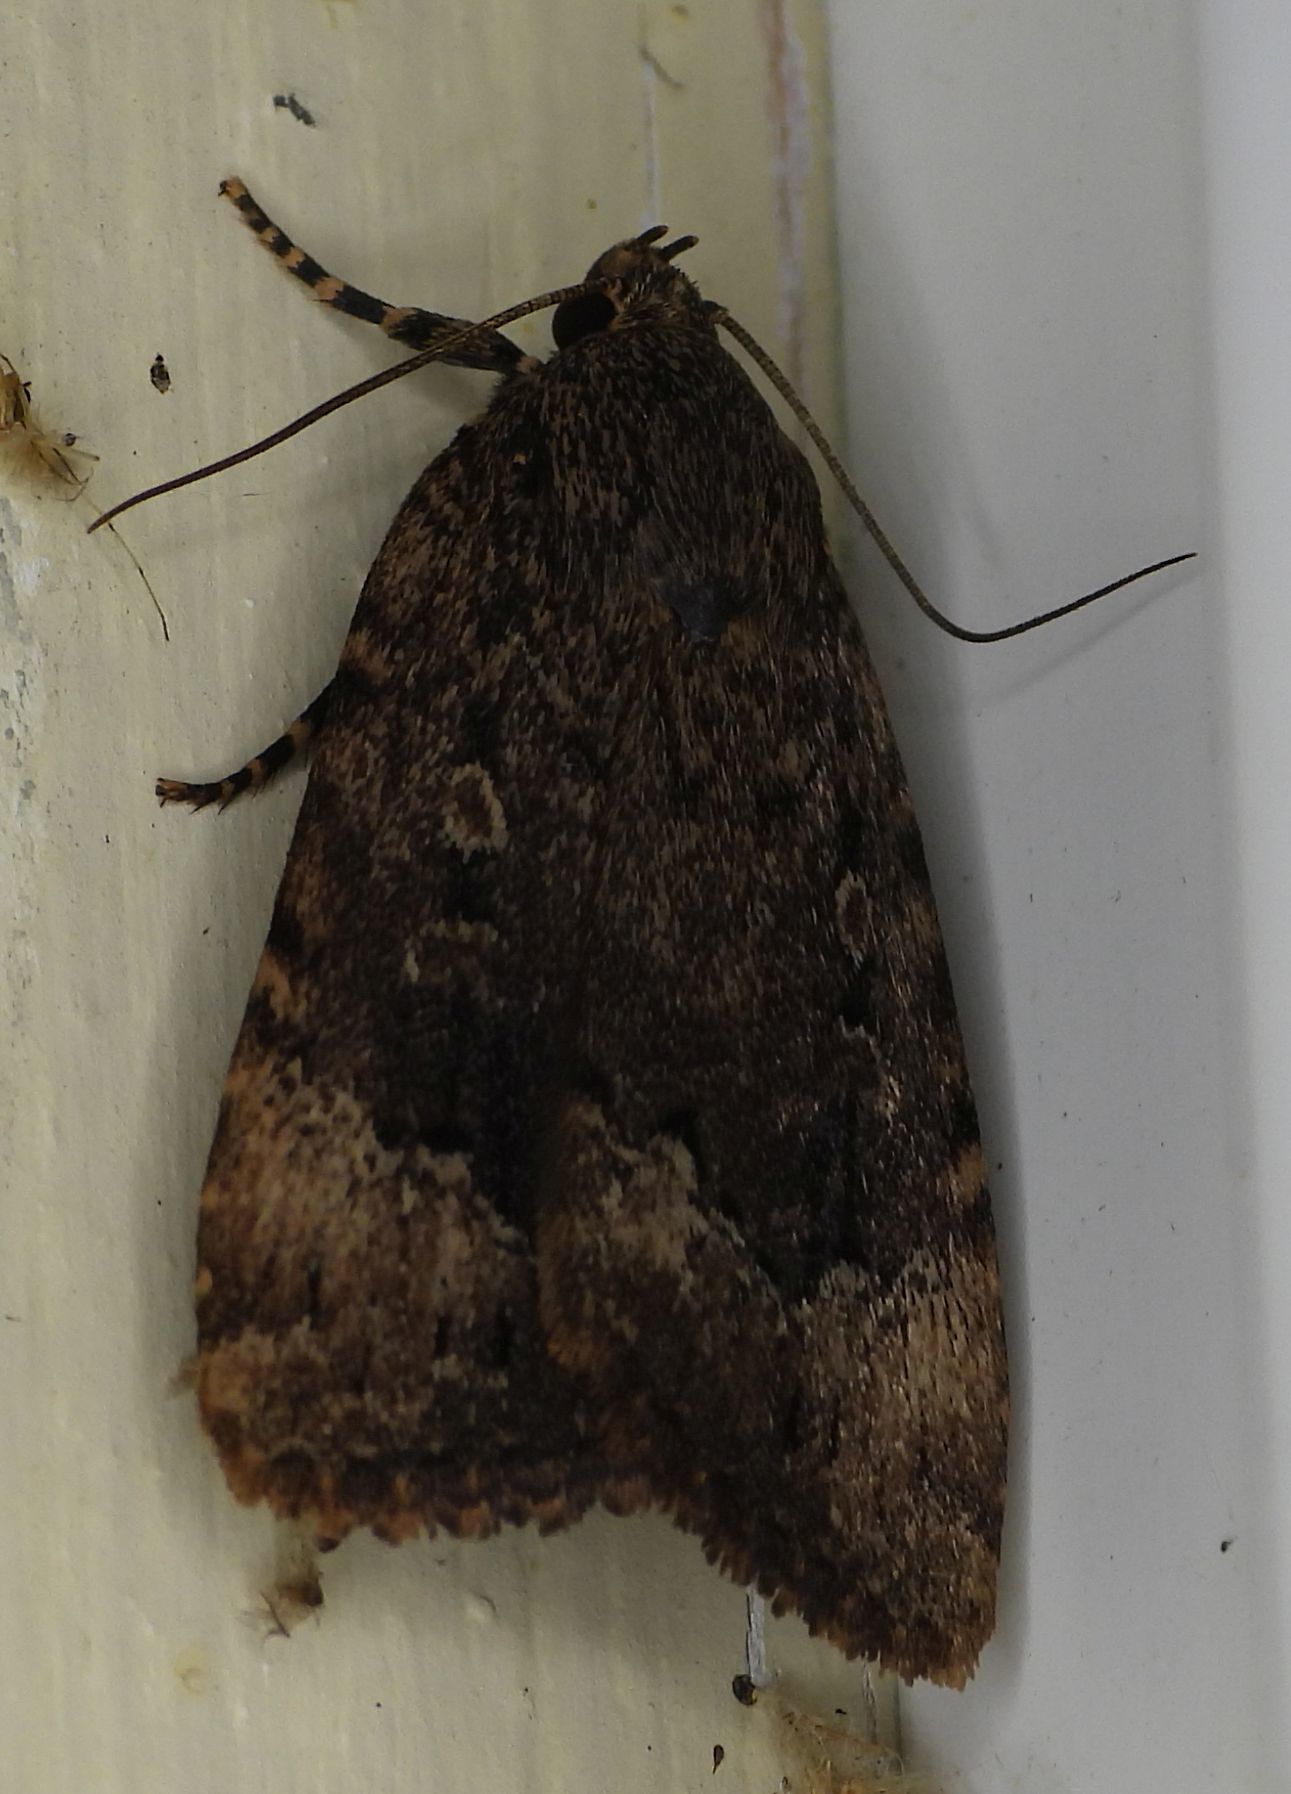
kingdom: Animalia
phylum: Arthropoda
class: Insecta
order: Lepidoptera
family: Noctuidae
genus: Amphipyra
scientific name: Amphipyra pyramidoides
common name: American copper underwing
